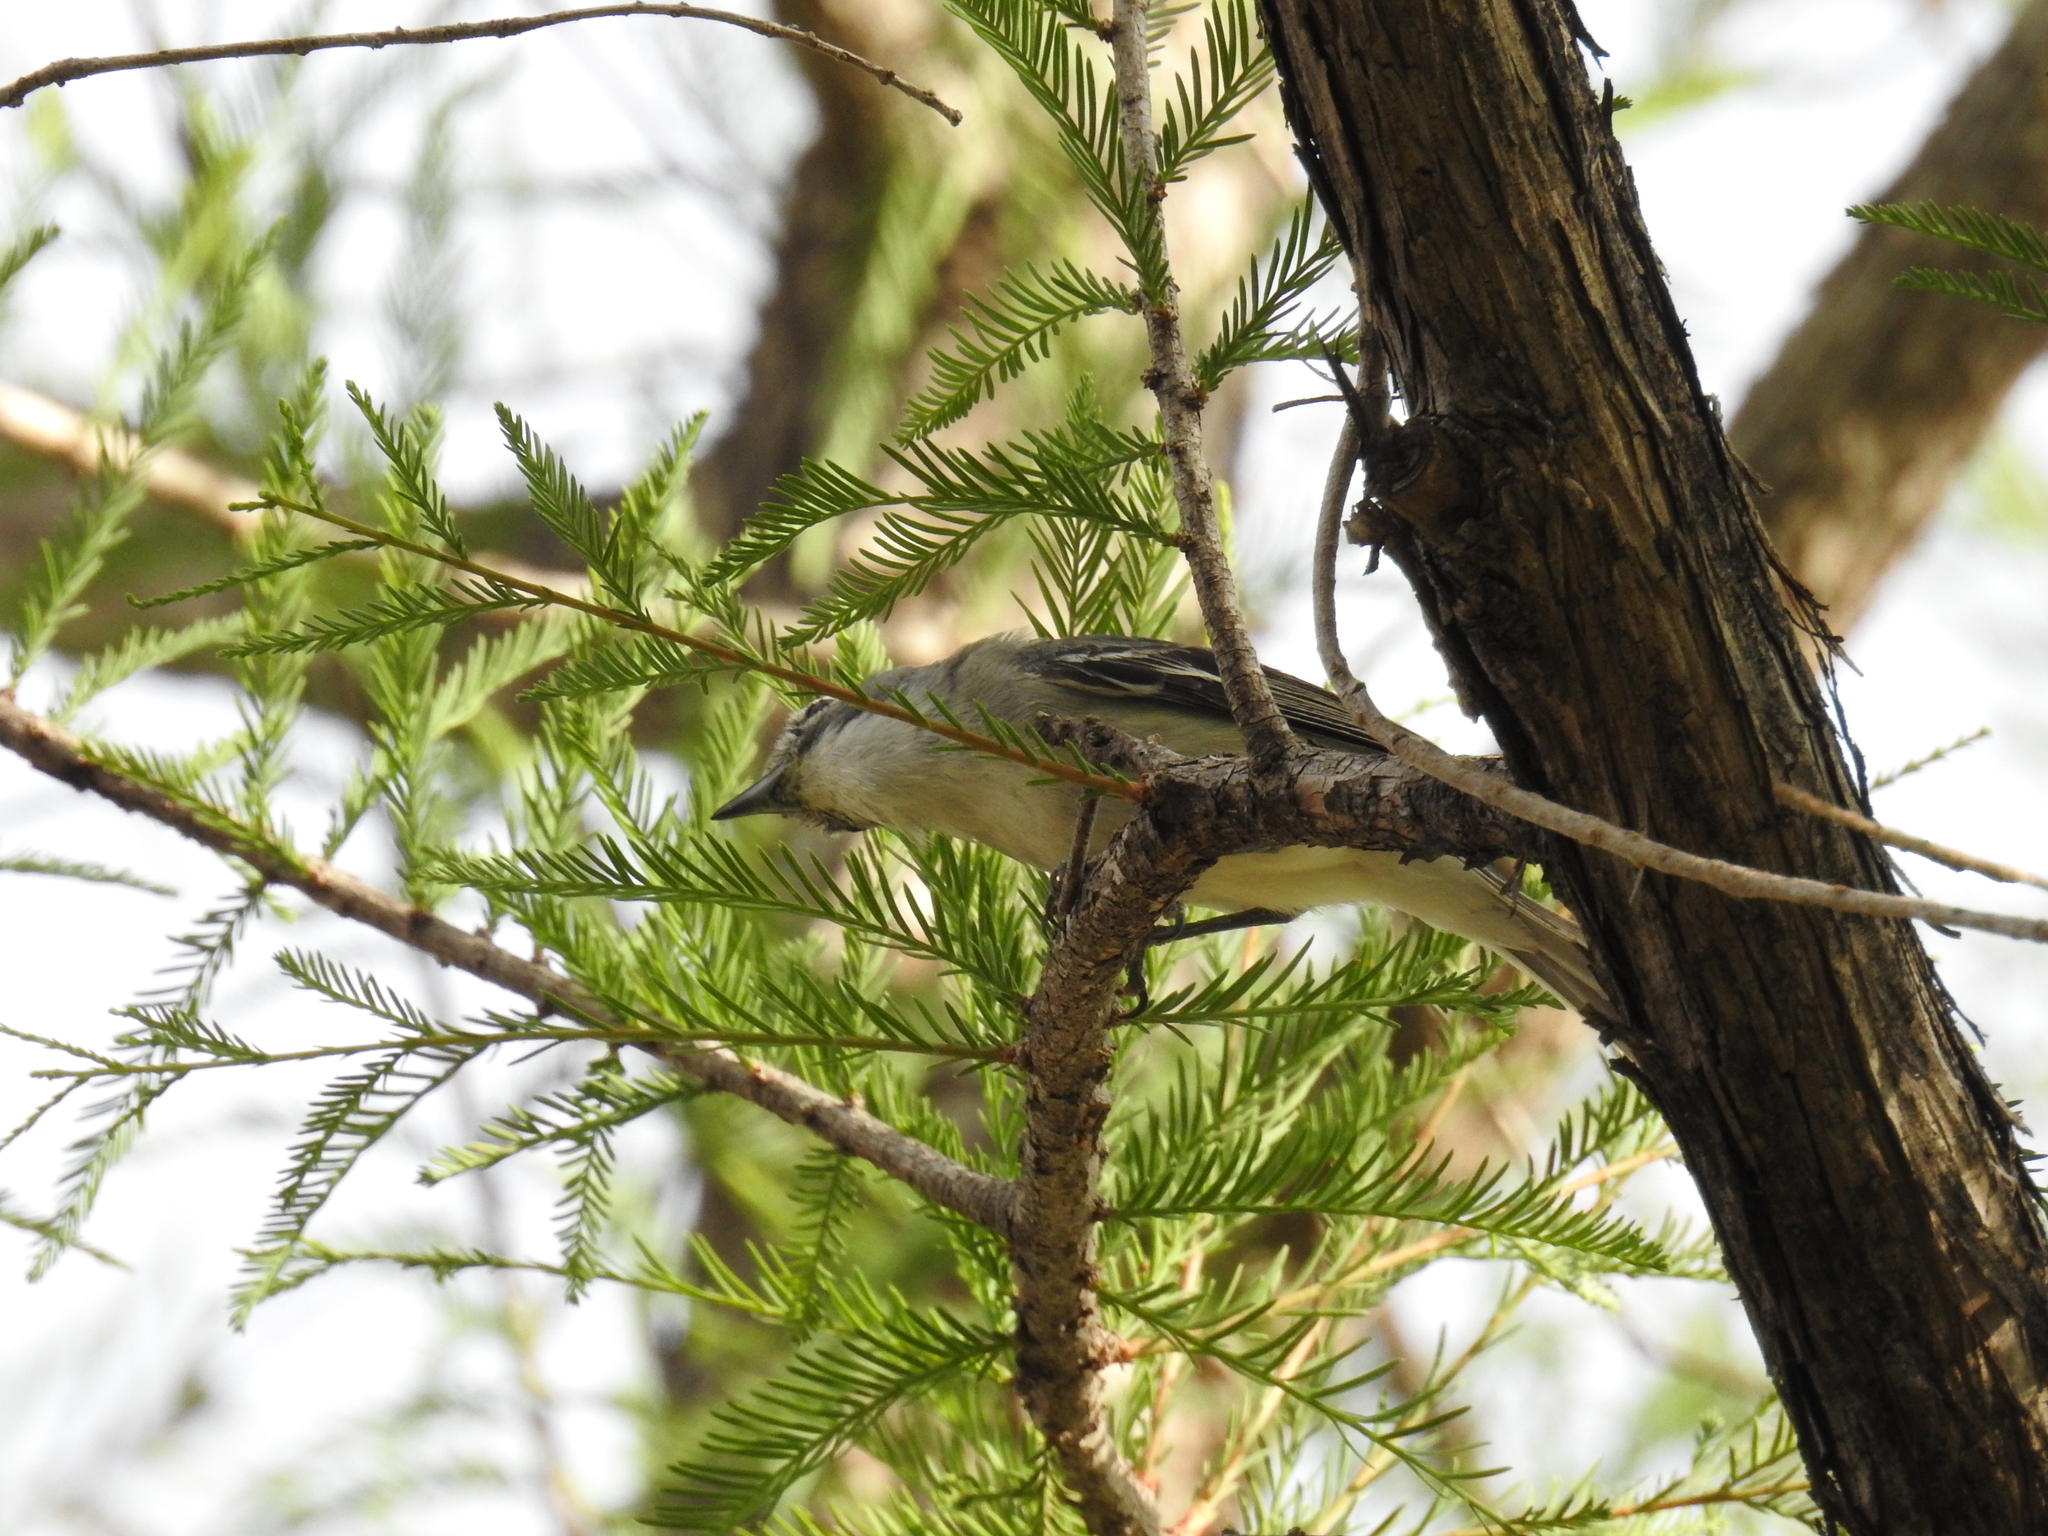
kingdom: Animalia
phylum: Chordata
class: Aves
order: Passeriformes
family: Vireonidae
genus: Vireo
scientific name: Vireo cassinii
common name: Cassin's vireo
